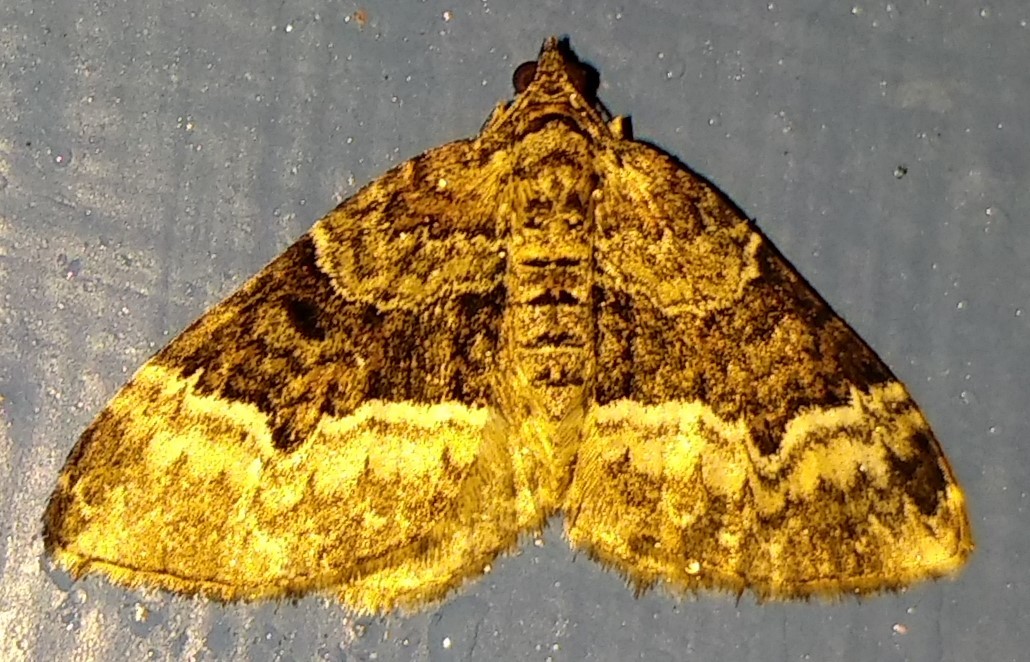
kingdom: Animalia
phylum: Arthropoda
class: Insecta
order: Lepidoptera
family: Geometridae
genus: Euphyia
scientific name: Euphyia intermediata
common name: Sharp-angled carpet
